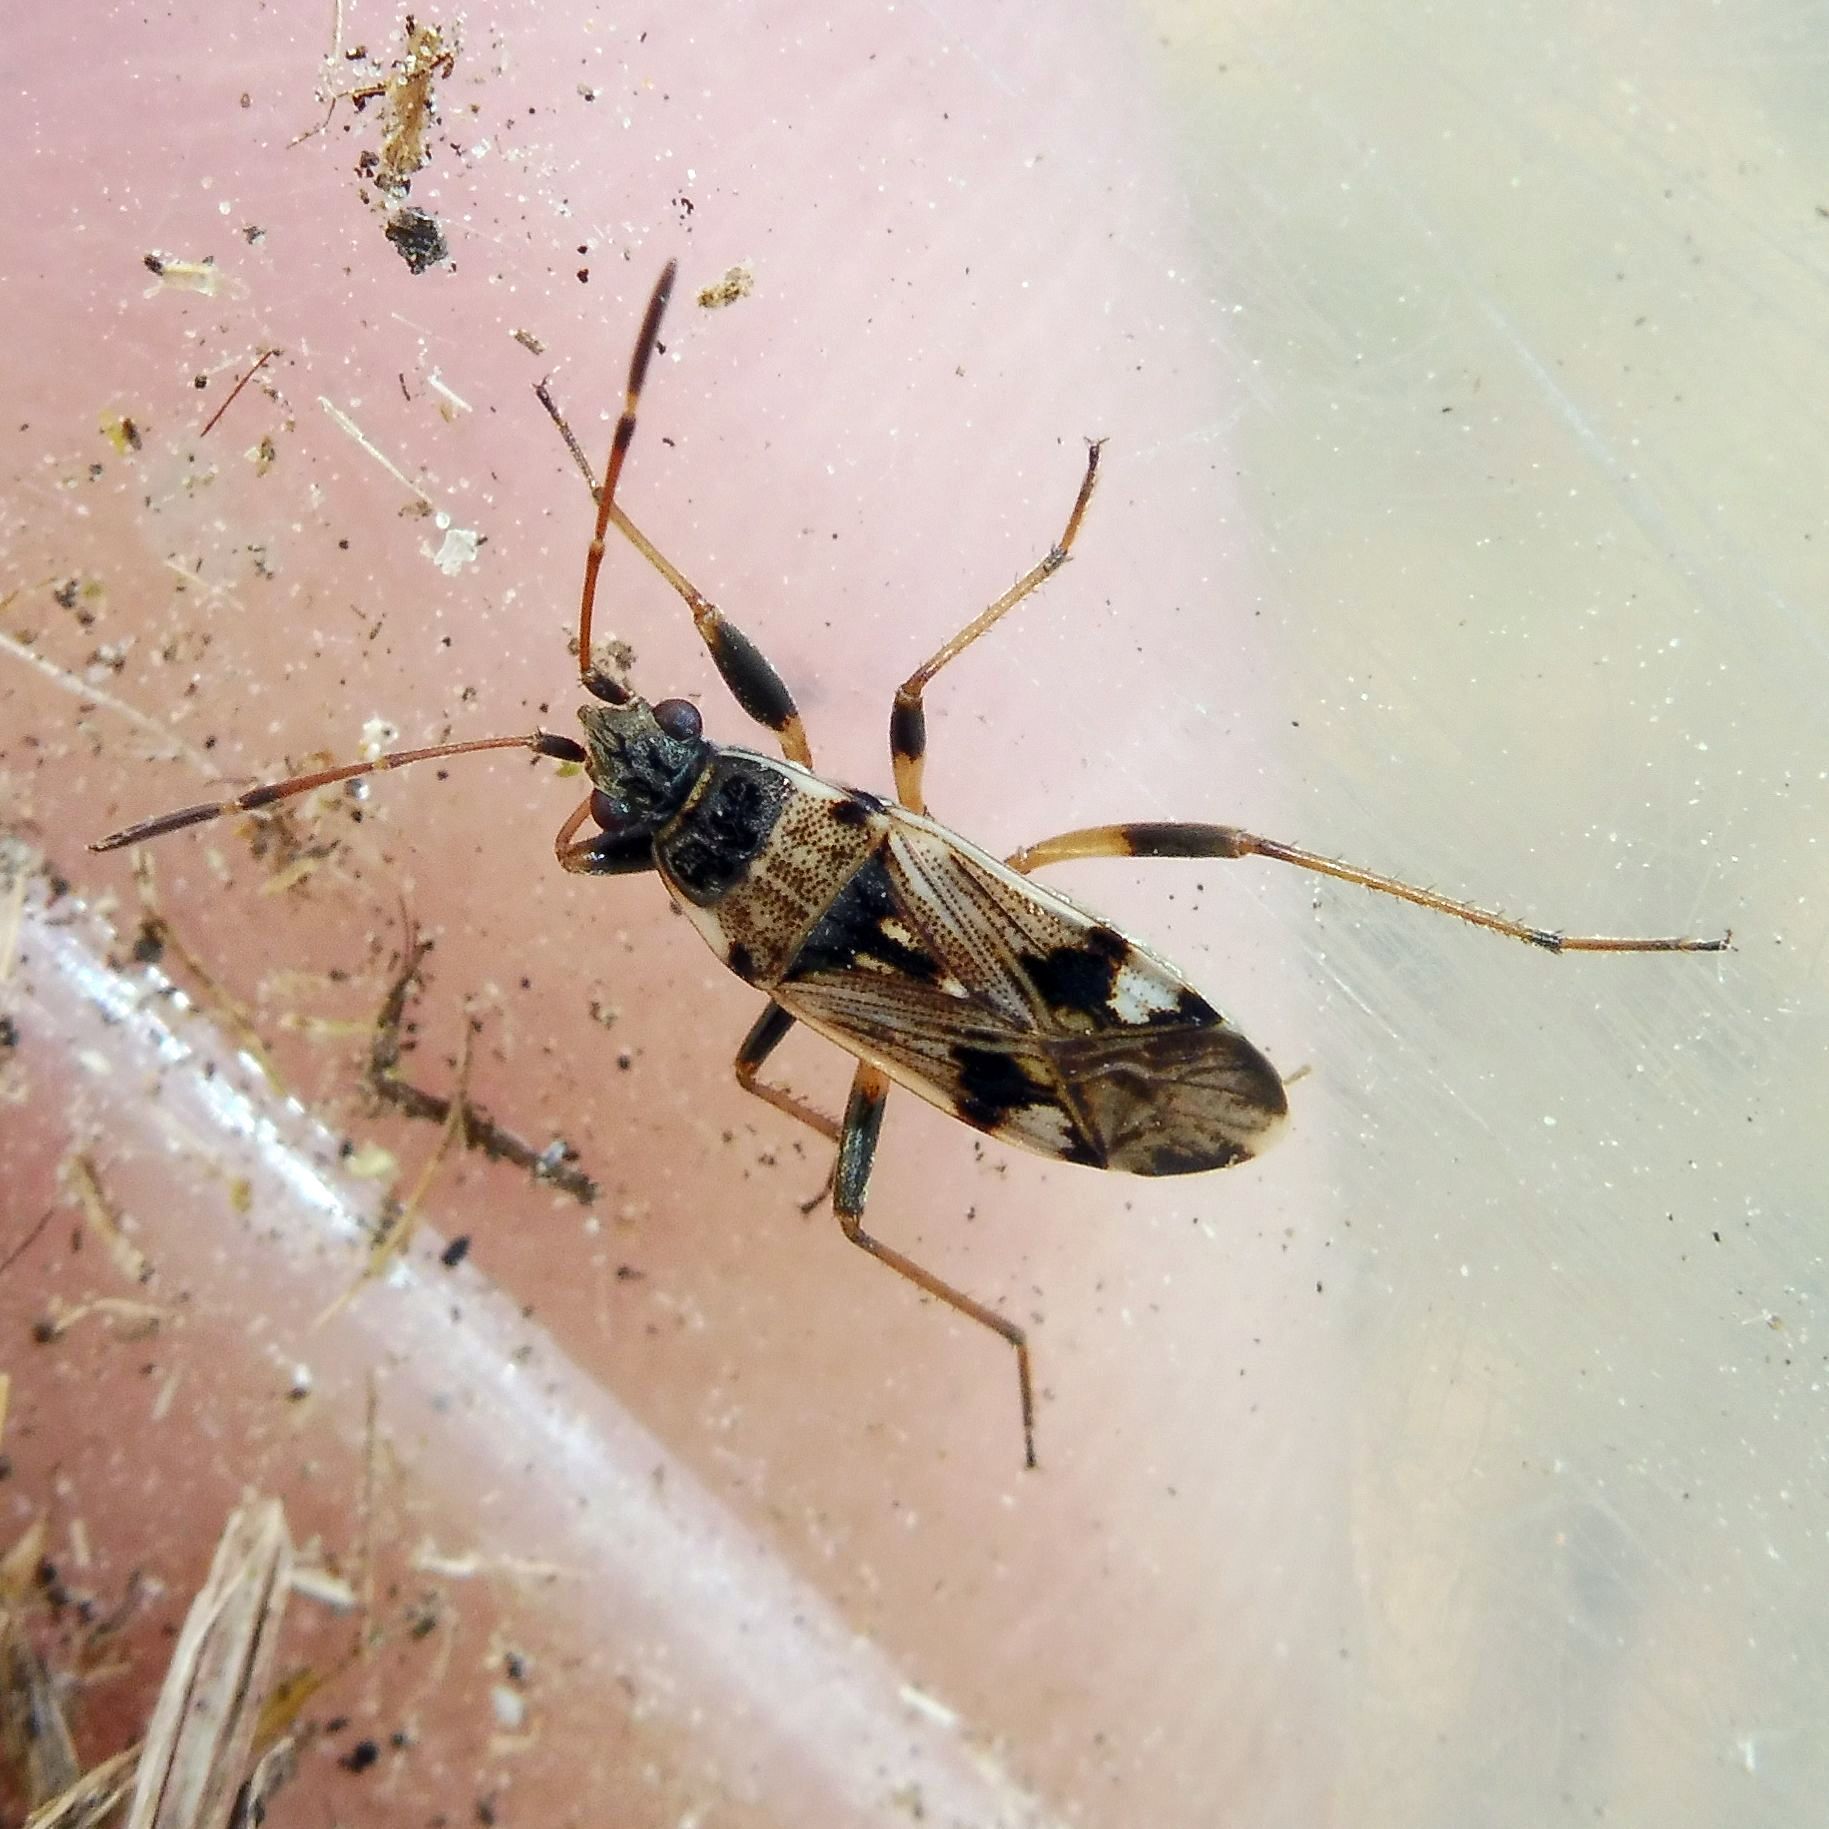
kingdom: Animalia
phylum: Arthropoda
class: Insecta
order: Hemiptera
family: Rhyparochromidae
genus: Beosus
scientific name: Beosus maritimus
